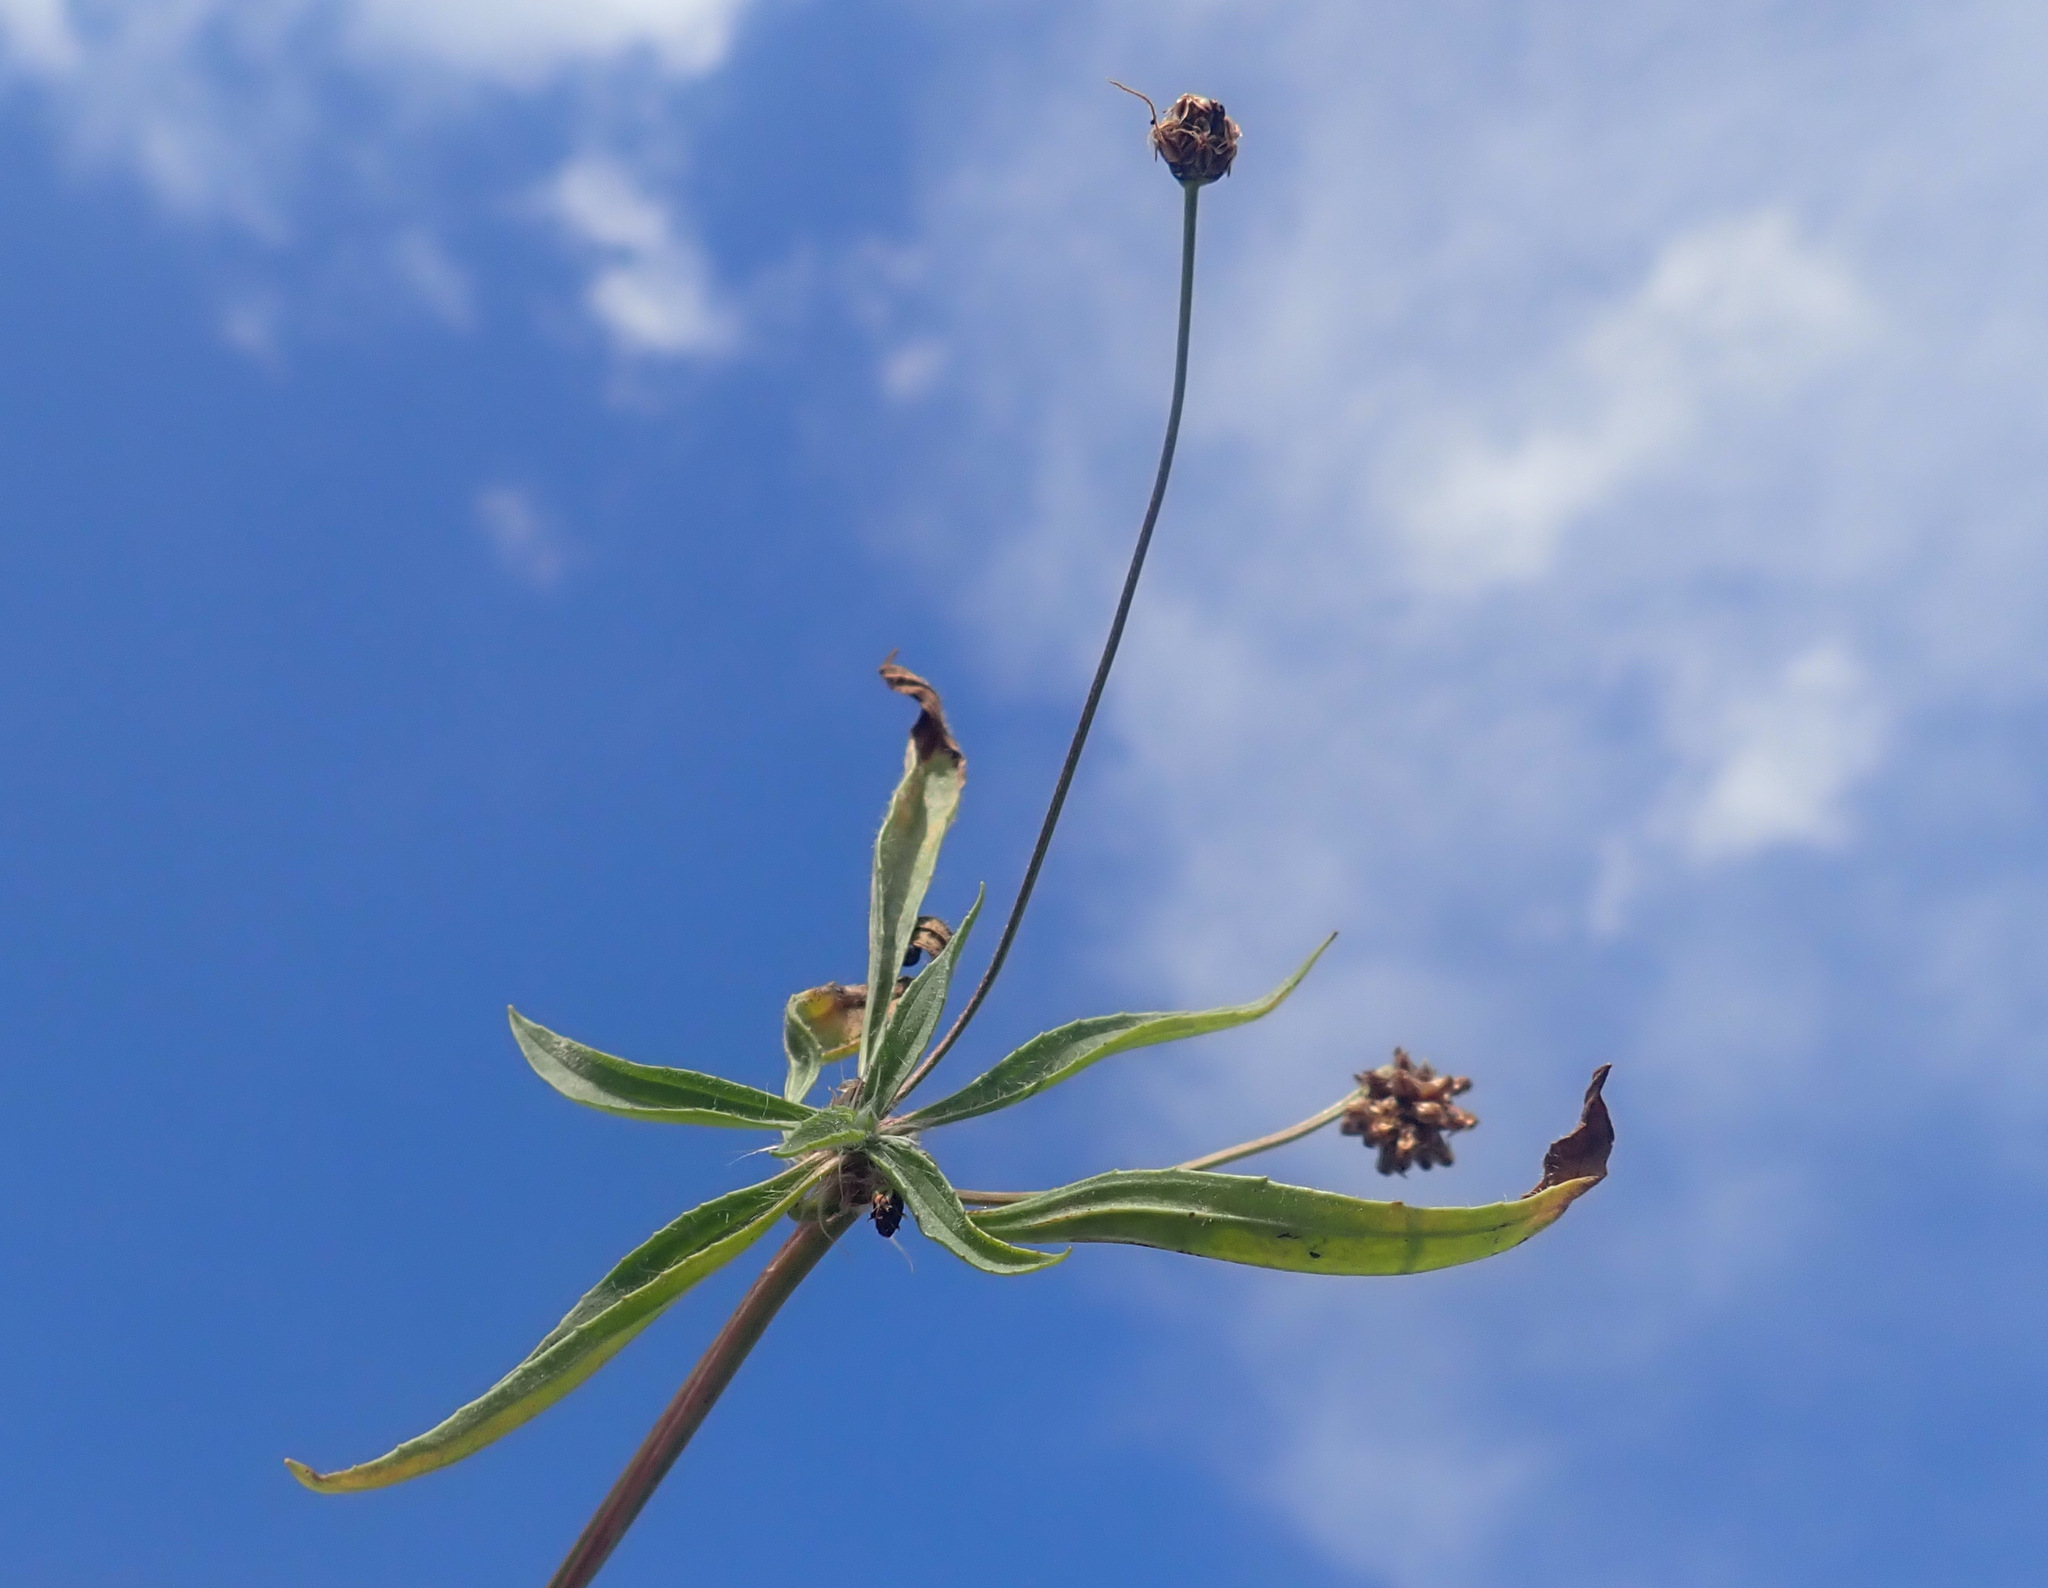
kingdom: Plantae
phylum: Tracheophyta
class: Magnoliopsida
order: Lamiales
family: Plantaginaceae
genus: Plantago
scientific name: Plantago lanceolata
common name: Ribwort plantain
